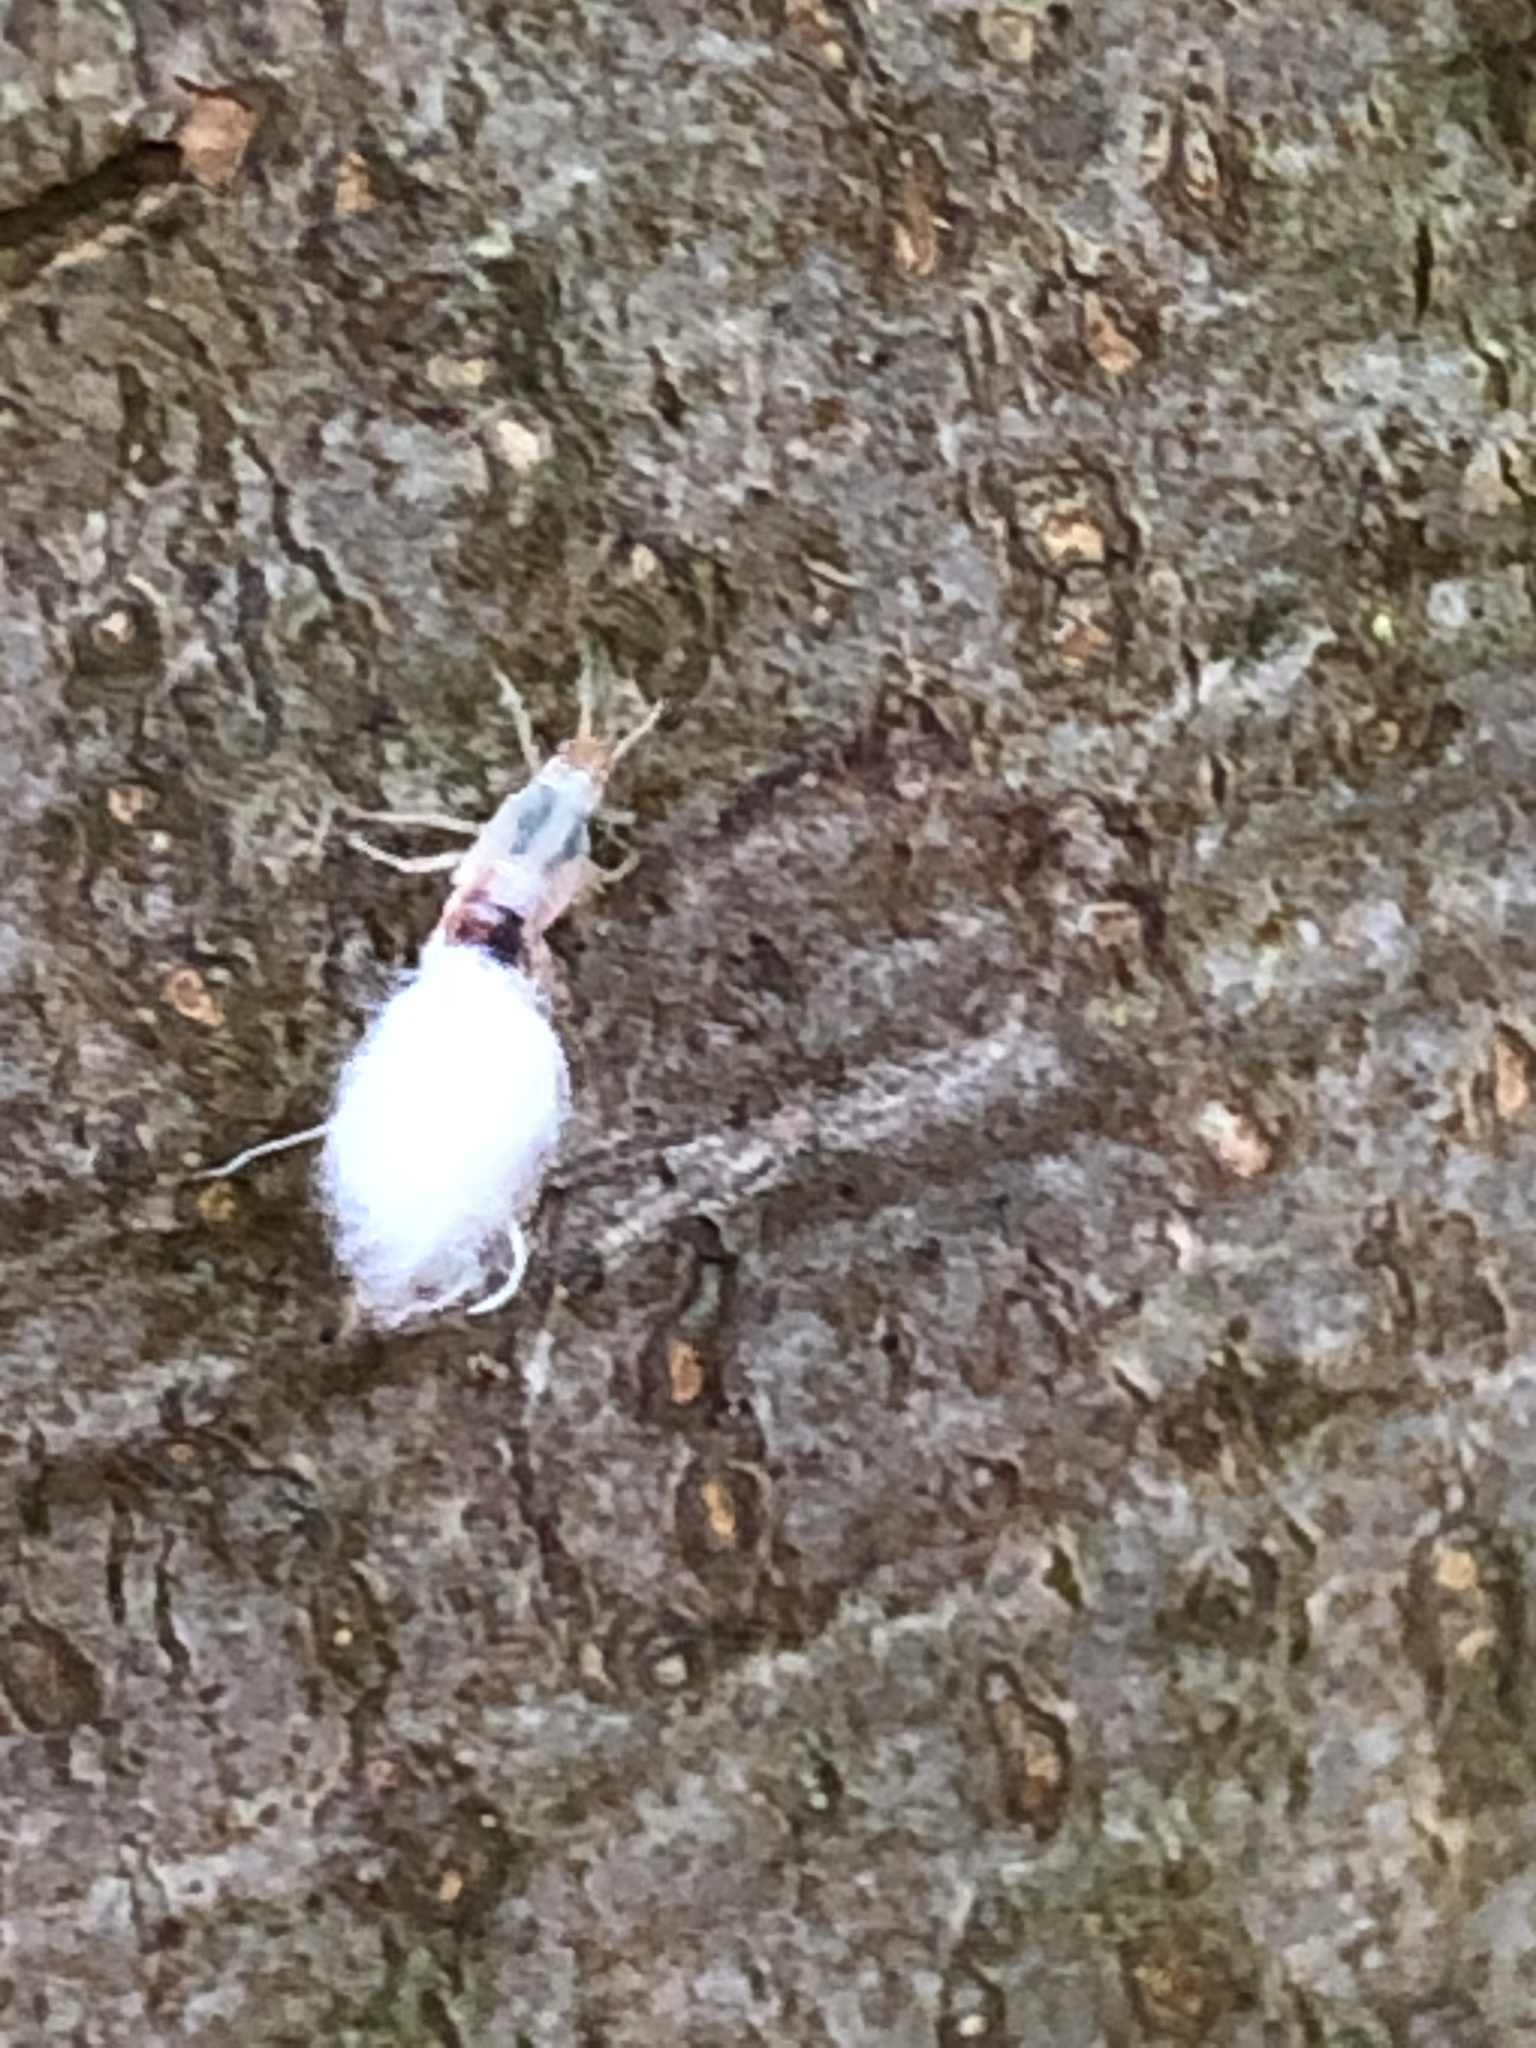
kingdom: Animalia
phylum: Arthropoda
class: Insecta
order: Hemiptera
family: Aphididae
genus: Grylloprociphilus
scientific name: Grylloprociphilus imbricator
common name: Beech blight aphid
